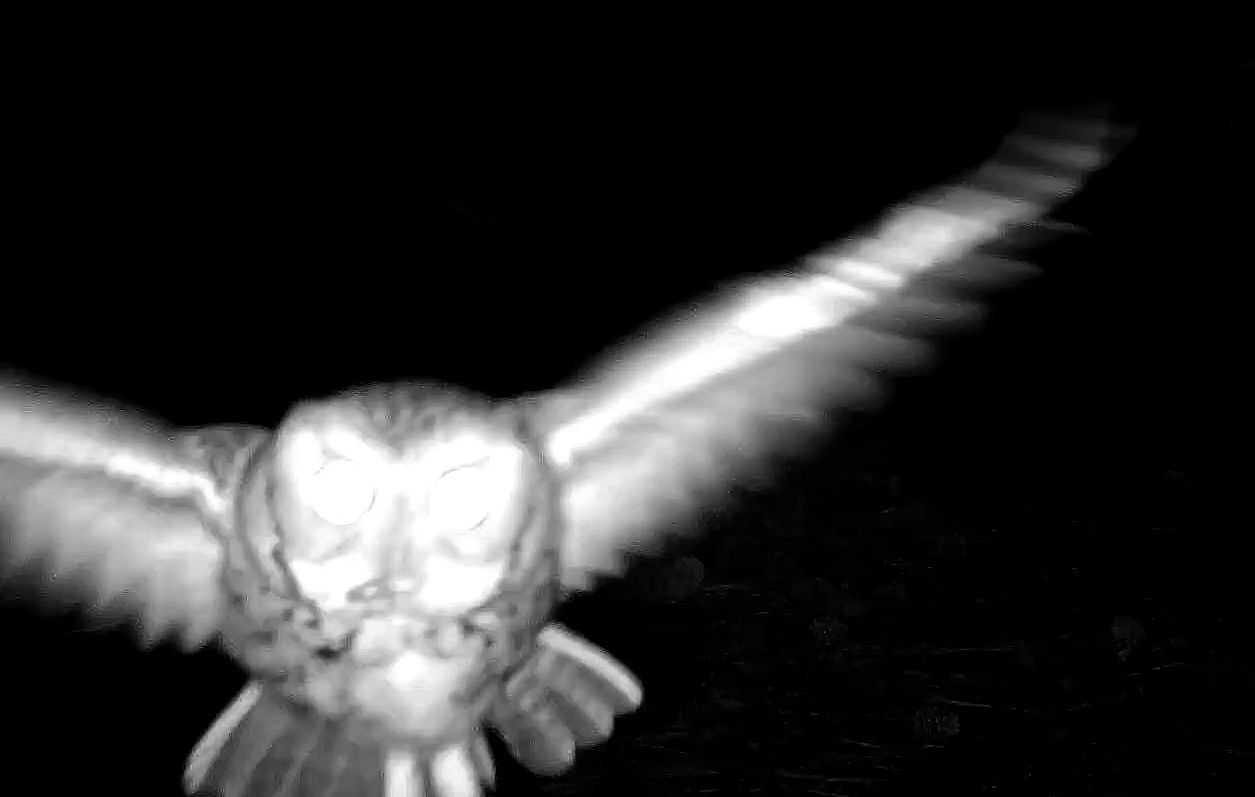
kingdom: Animalia
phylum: Chordata
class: Aves
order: Strigiformes
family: Strigidae
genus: Megascops
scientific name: Megascops asio
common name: Eastern screech-owl
